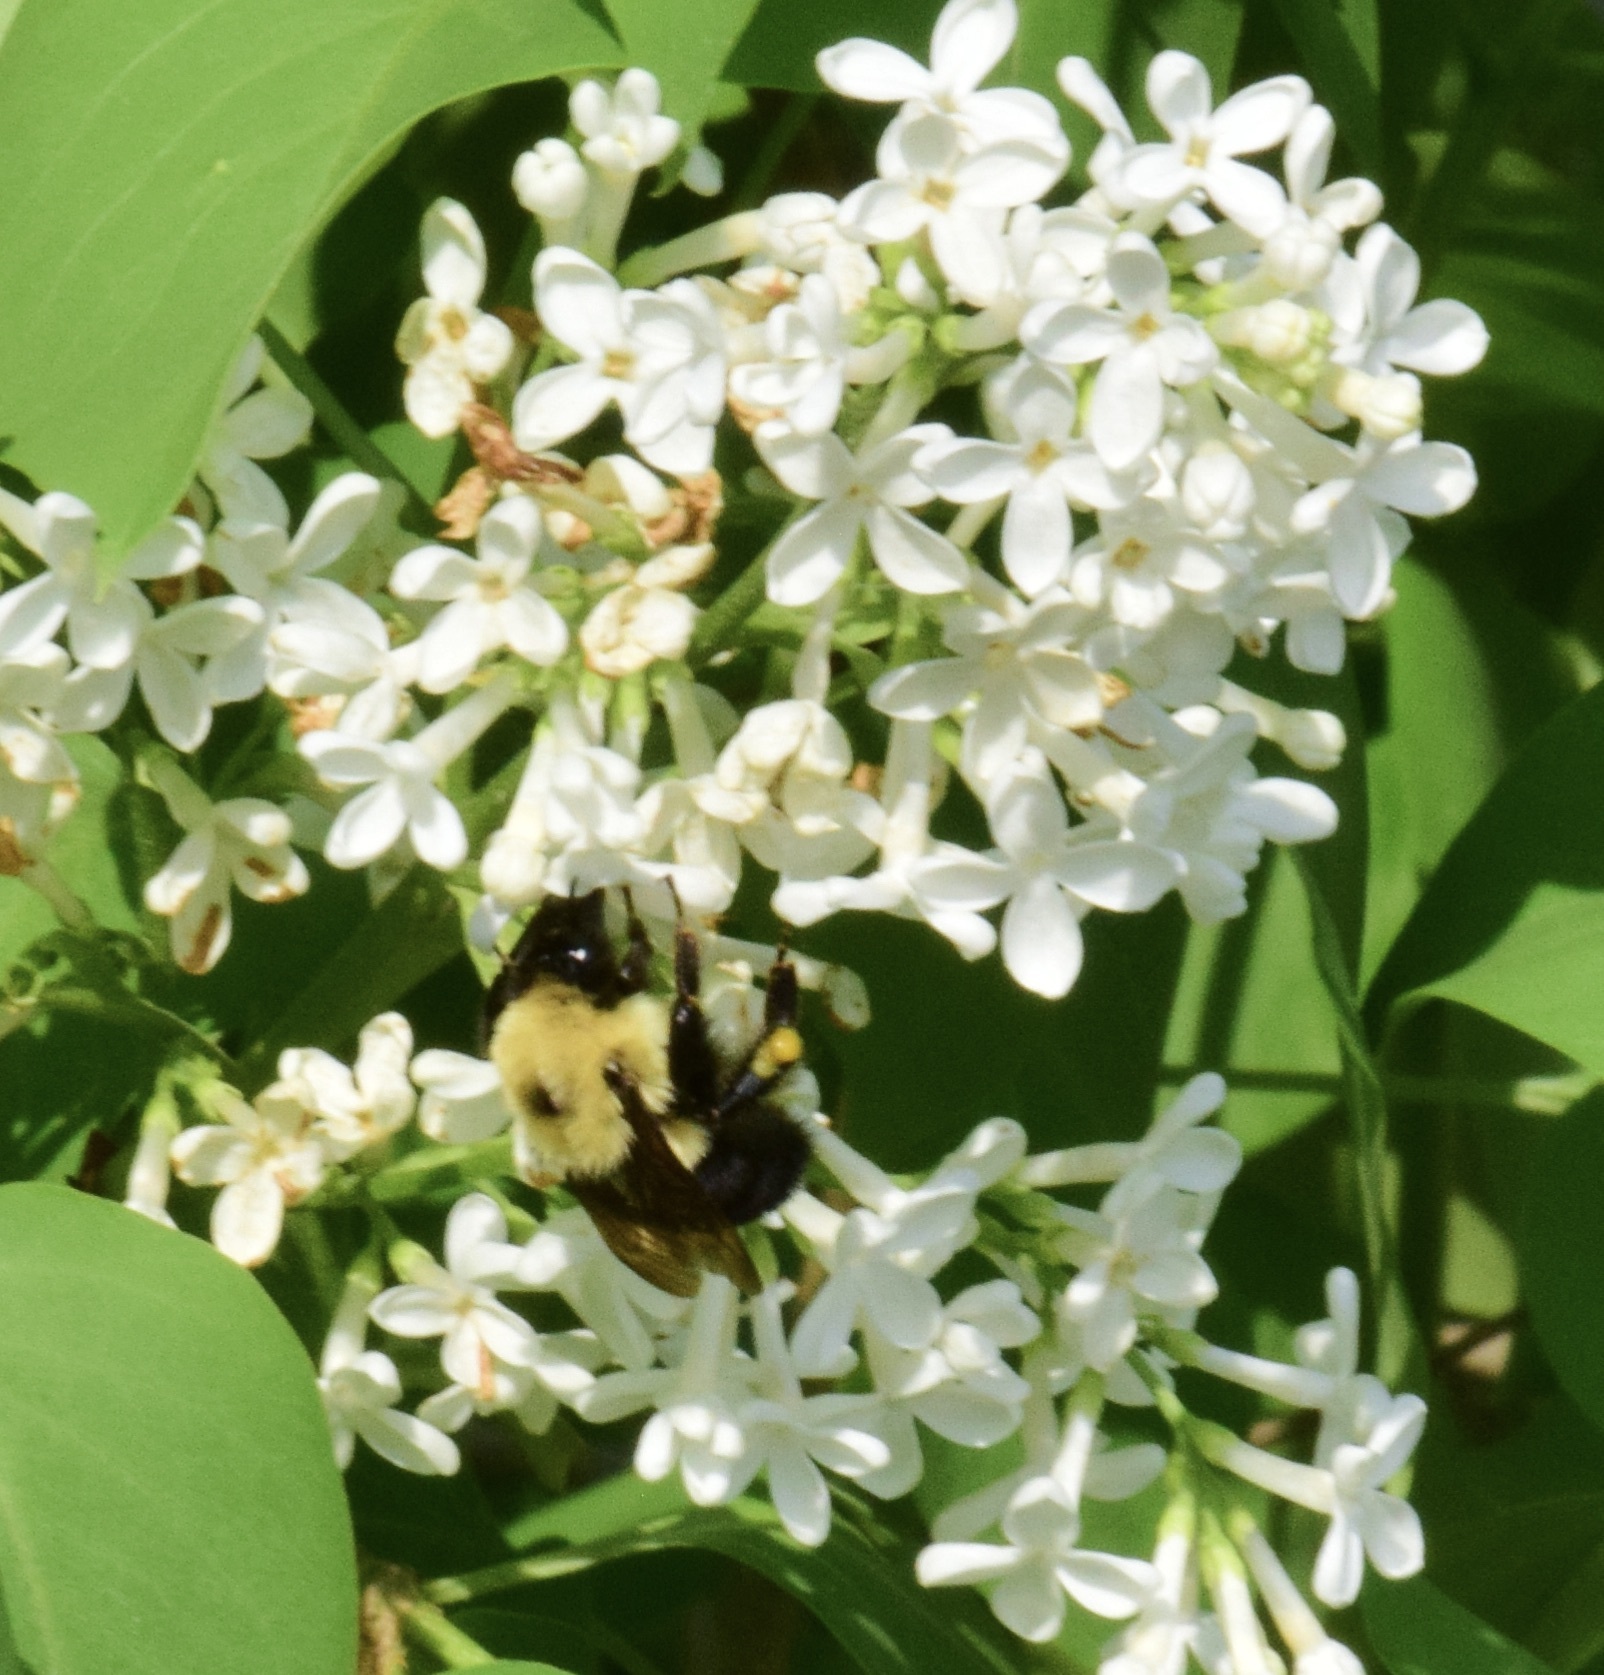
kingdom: Animalia
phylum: Arthropoda
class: Insecta
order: Hymenoptera
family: Apidae
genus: Bombus
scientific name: Bombus bimaculatus
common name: Two-spotted bumble bee
